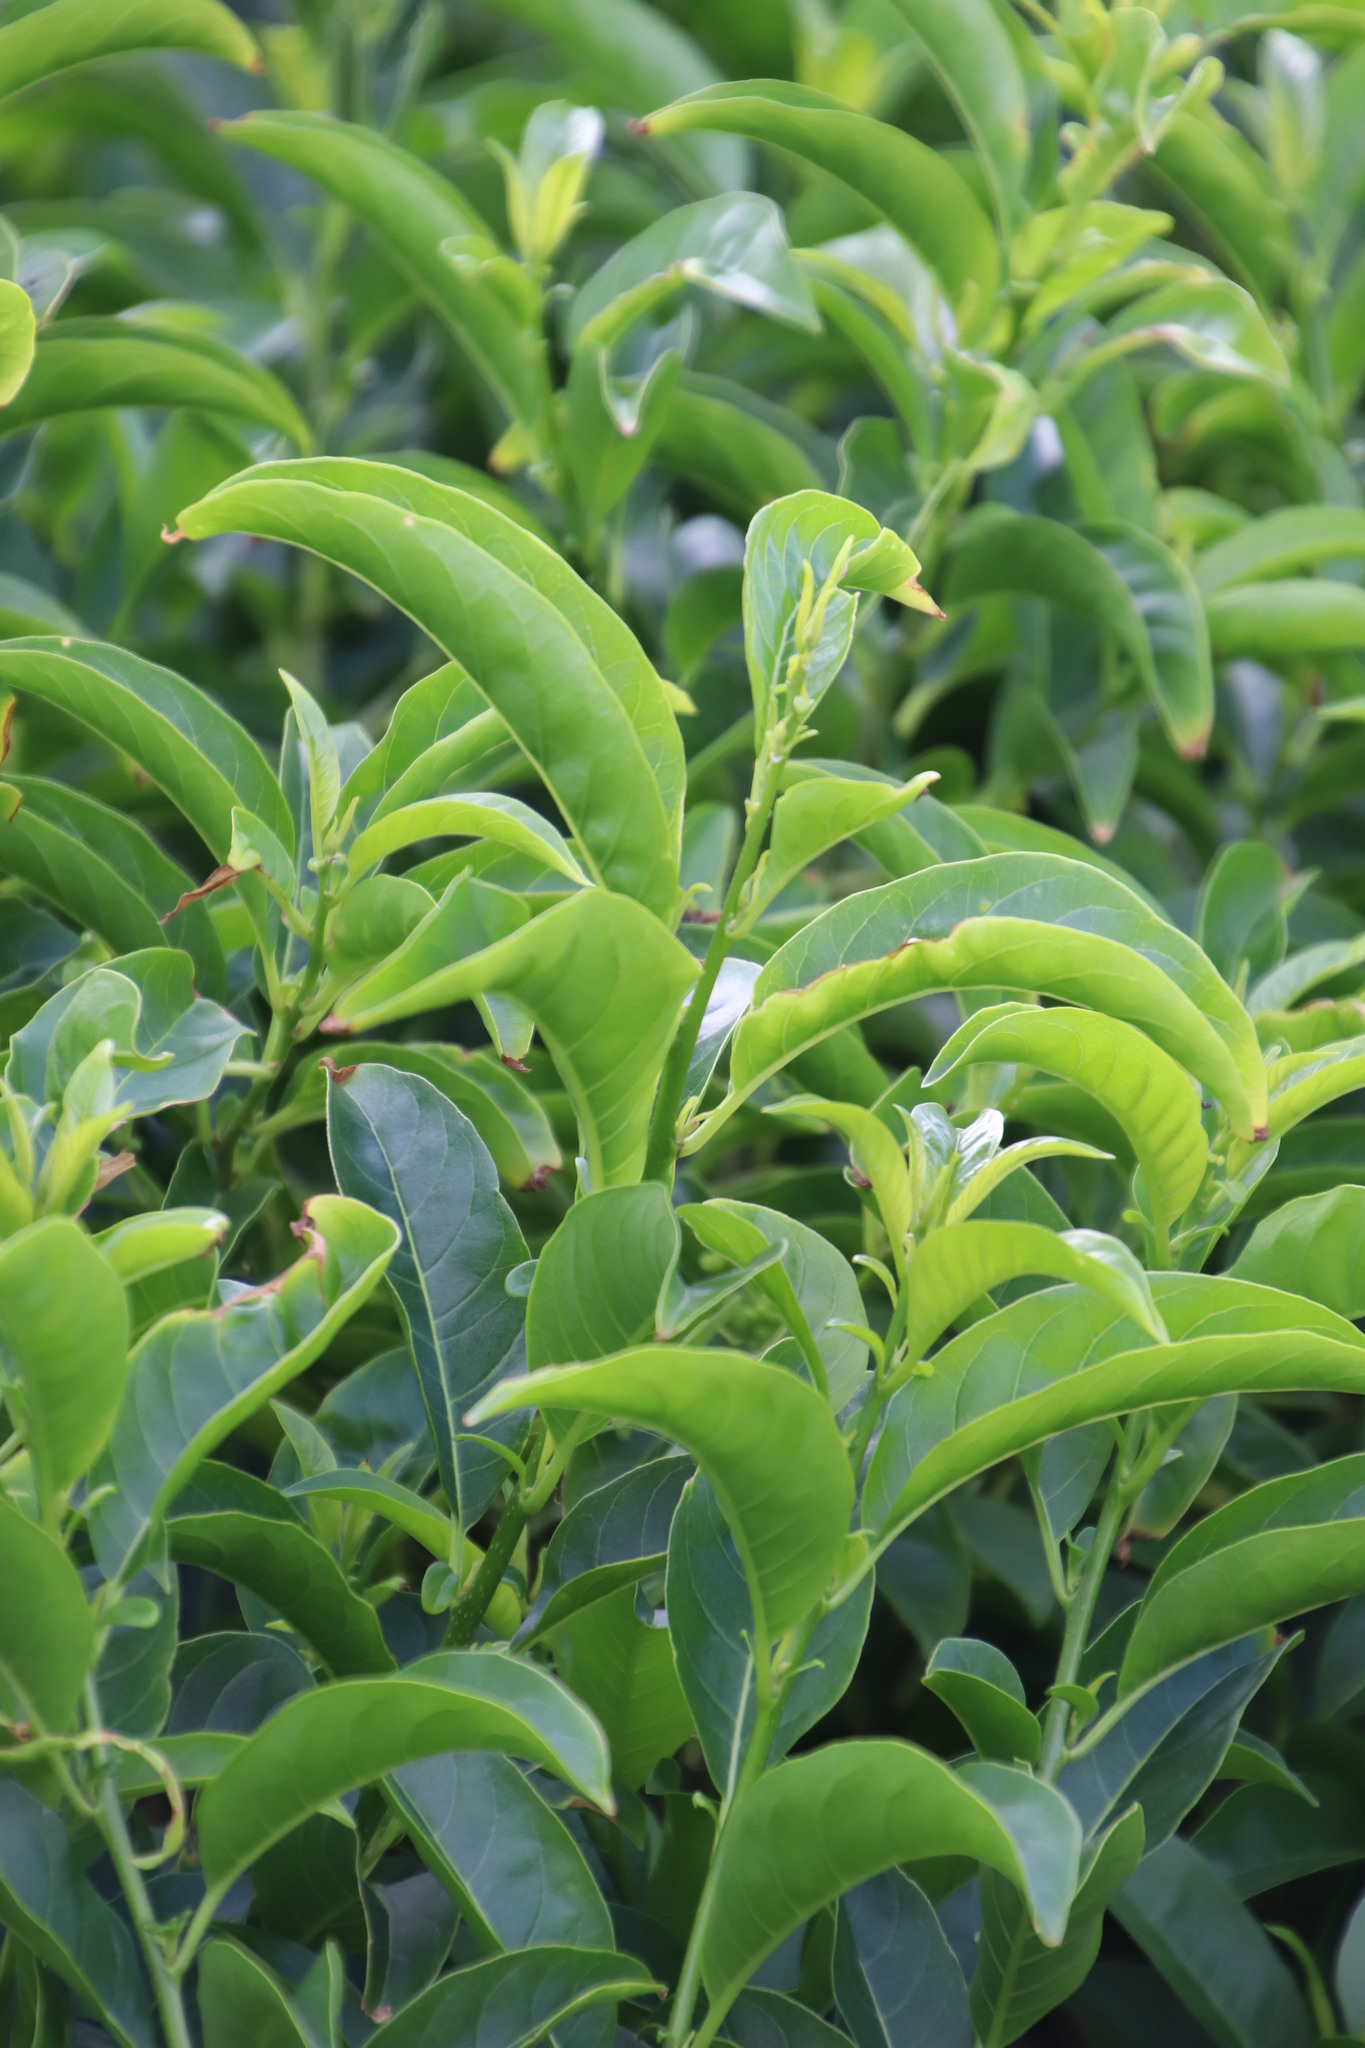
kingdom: Plantae
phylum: Tracheophyta
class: Magnoliopsida
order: Solanales
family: Solanaceae
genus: Cestrum
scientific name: Cestrum laevigatum
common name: Inkberry
